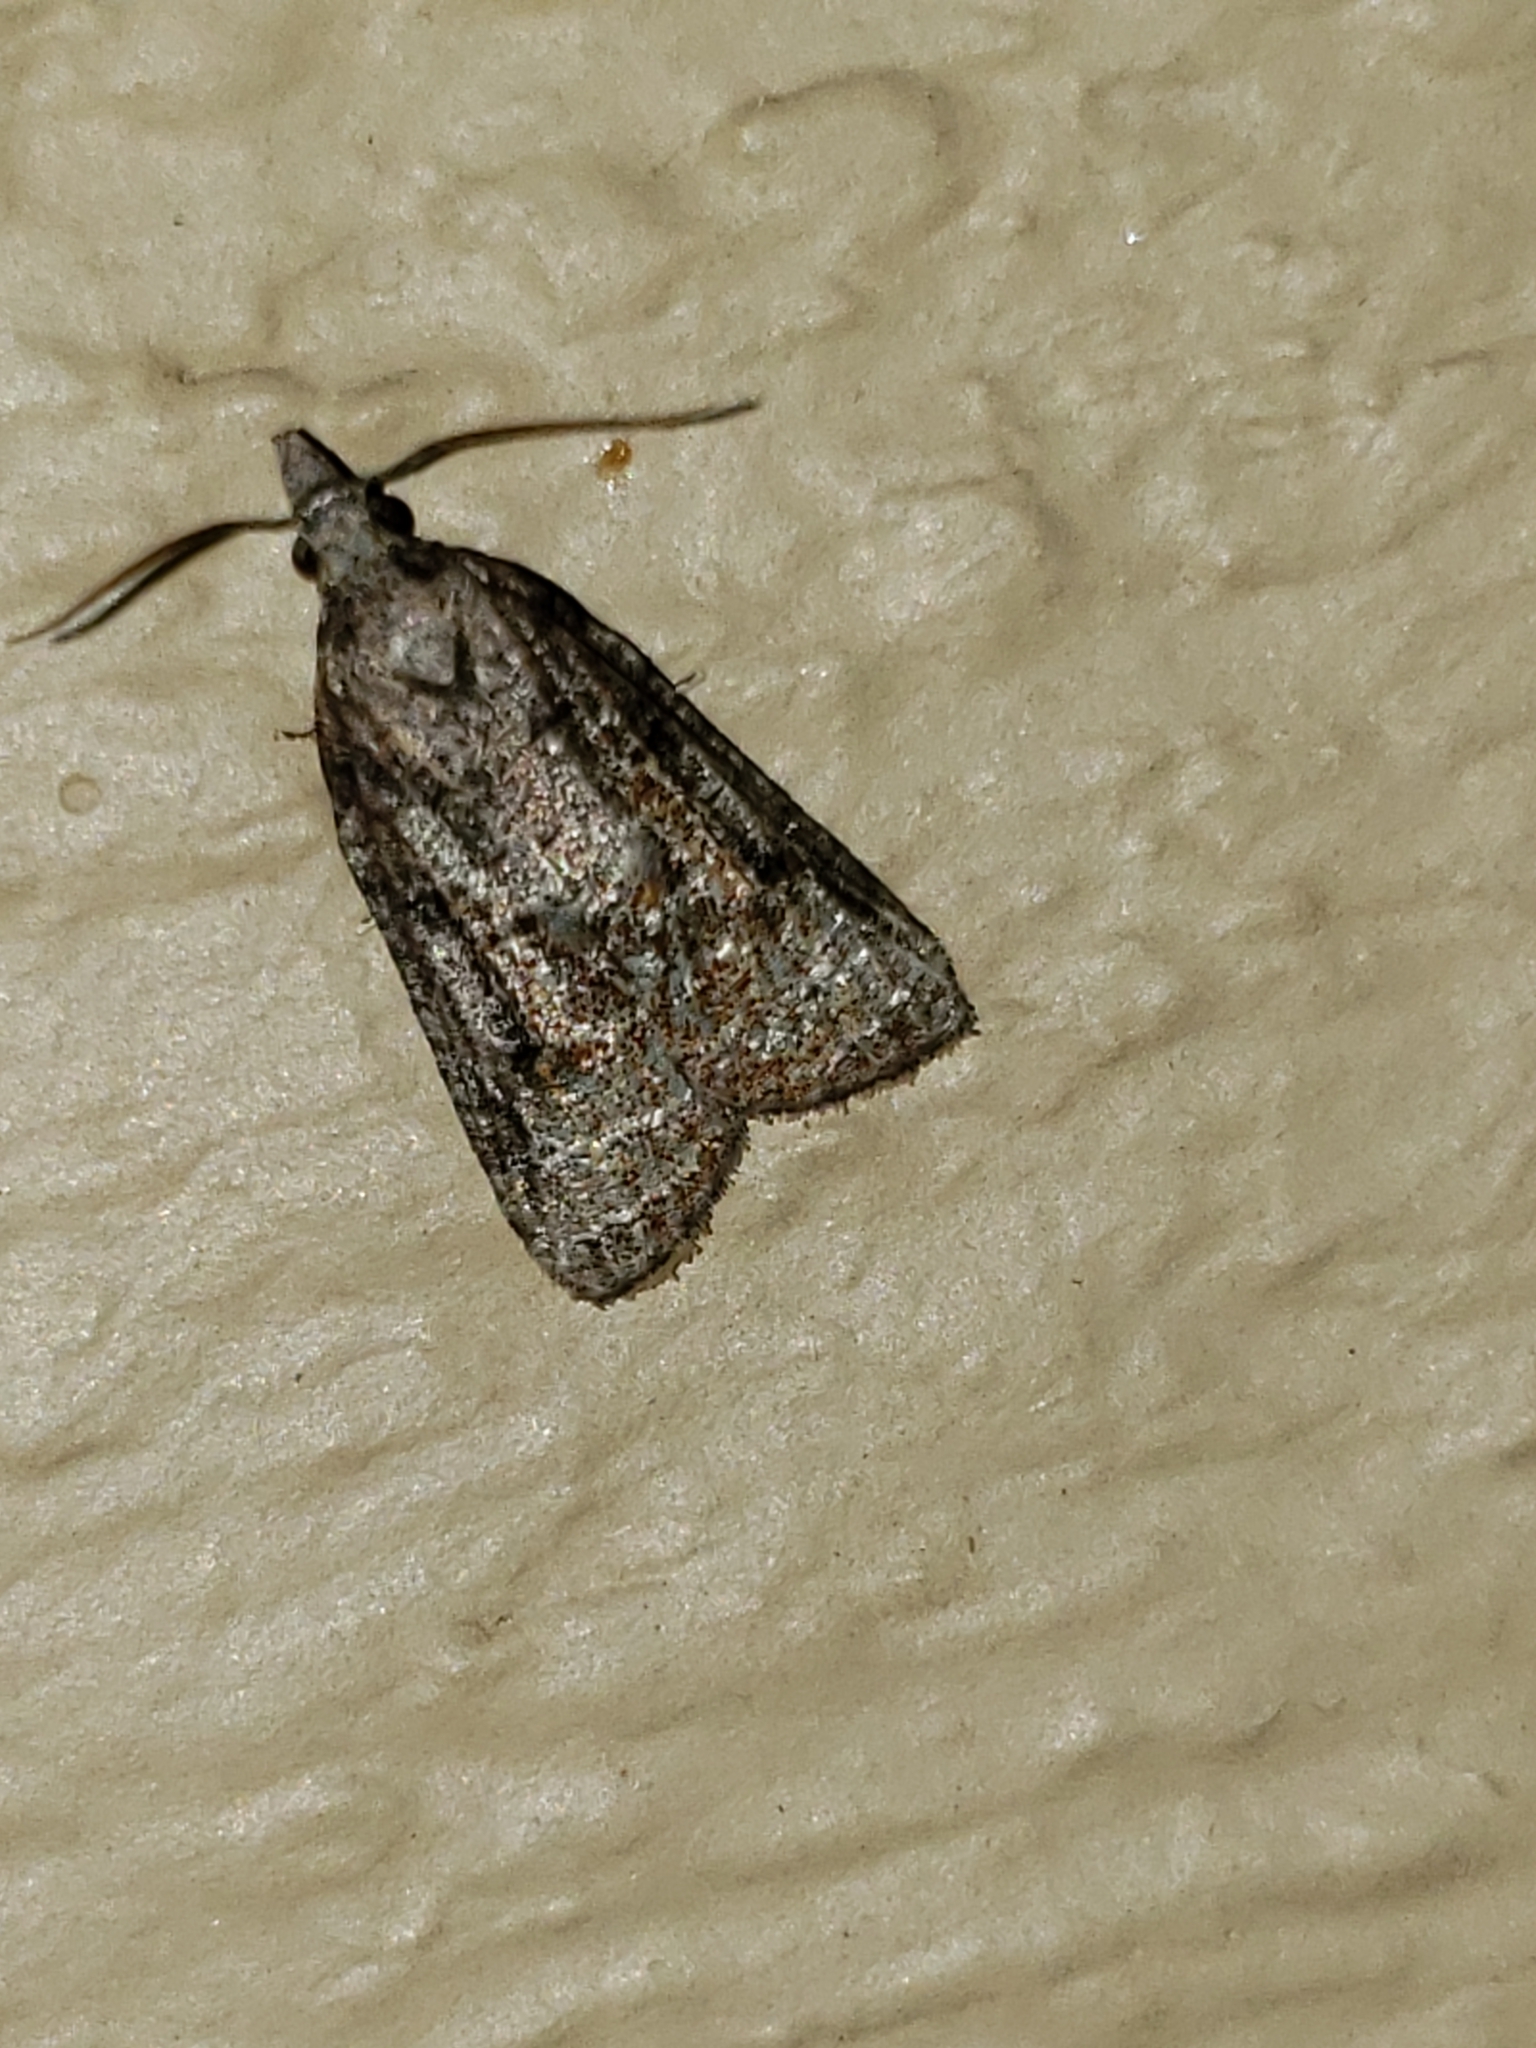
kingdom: Animalia
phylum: Arthropoda
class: Insecta
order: Lepidoptera
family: Tortricidae
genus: Platynota
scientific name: Platynota idaeusalis
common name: Tufted apple bud moth
